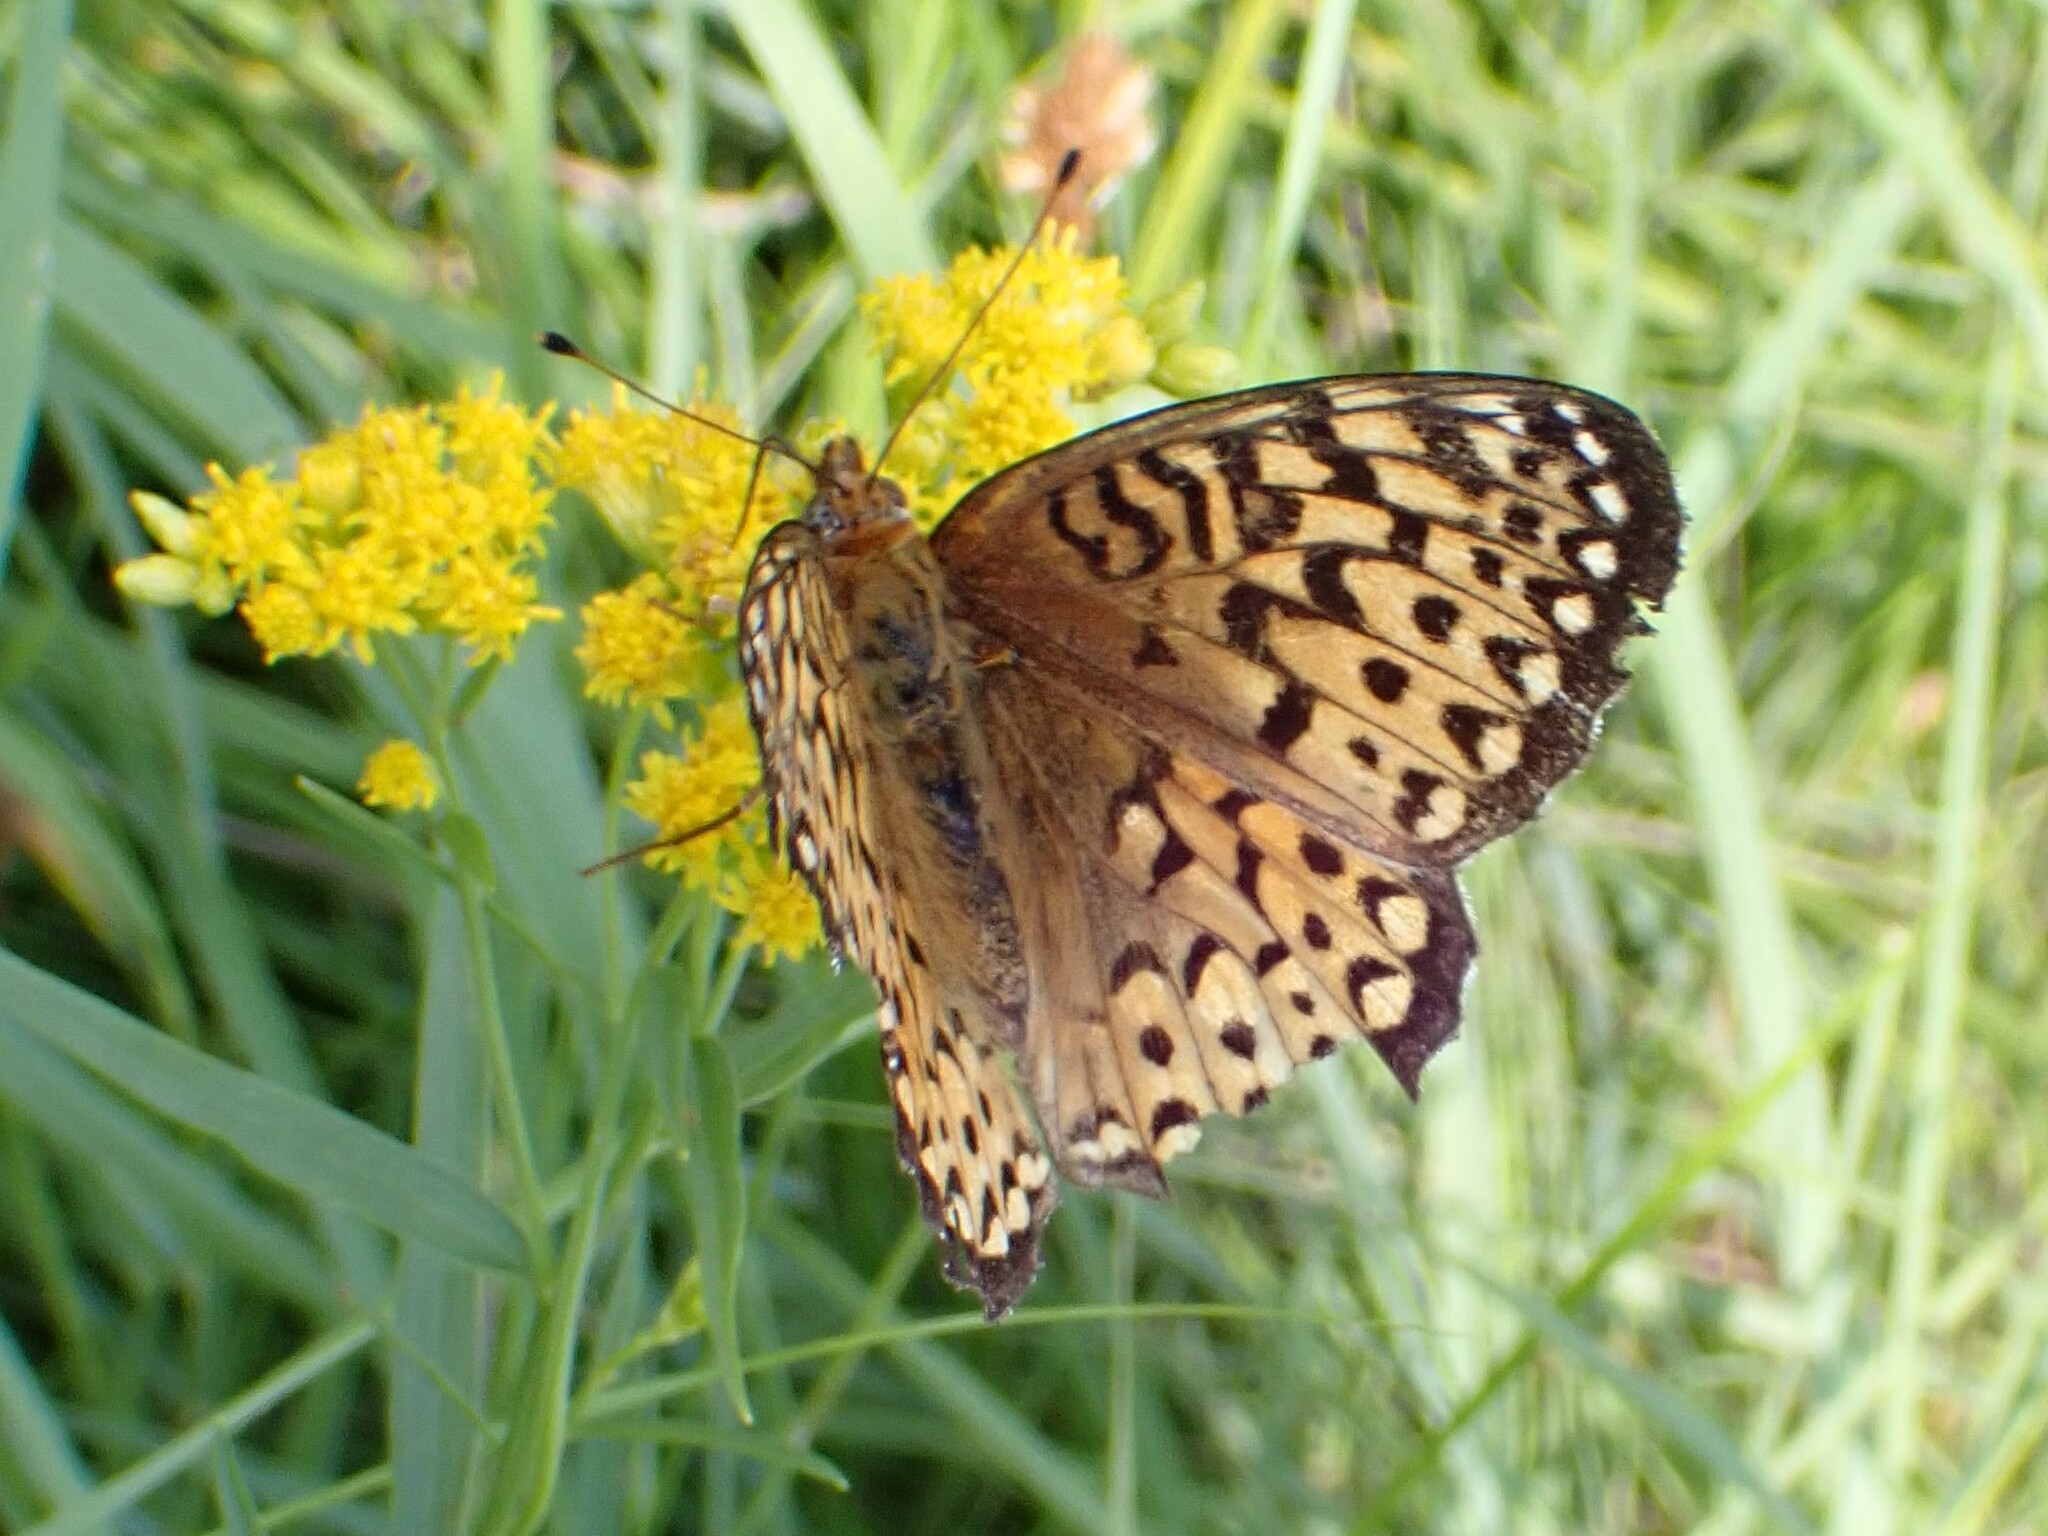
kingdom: Animalia
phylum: Arthropoda
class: Insecta
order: Lepidoptera
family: Nymphalidae
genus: Speyeria
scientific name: Speyeria atlantis
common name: Atlantis fritillary
